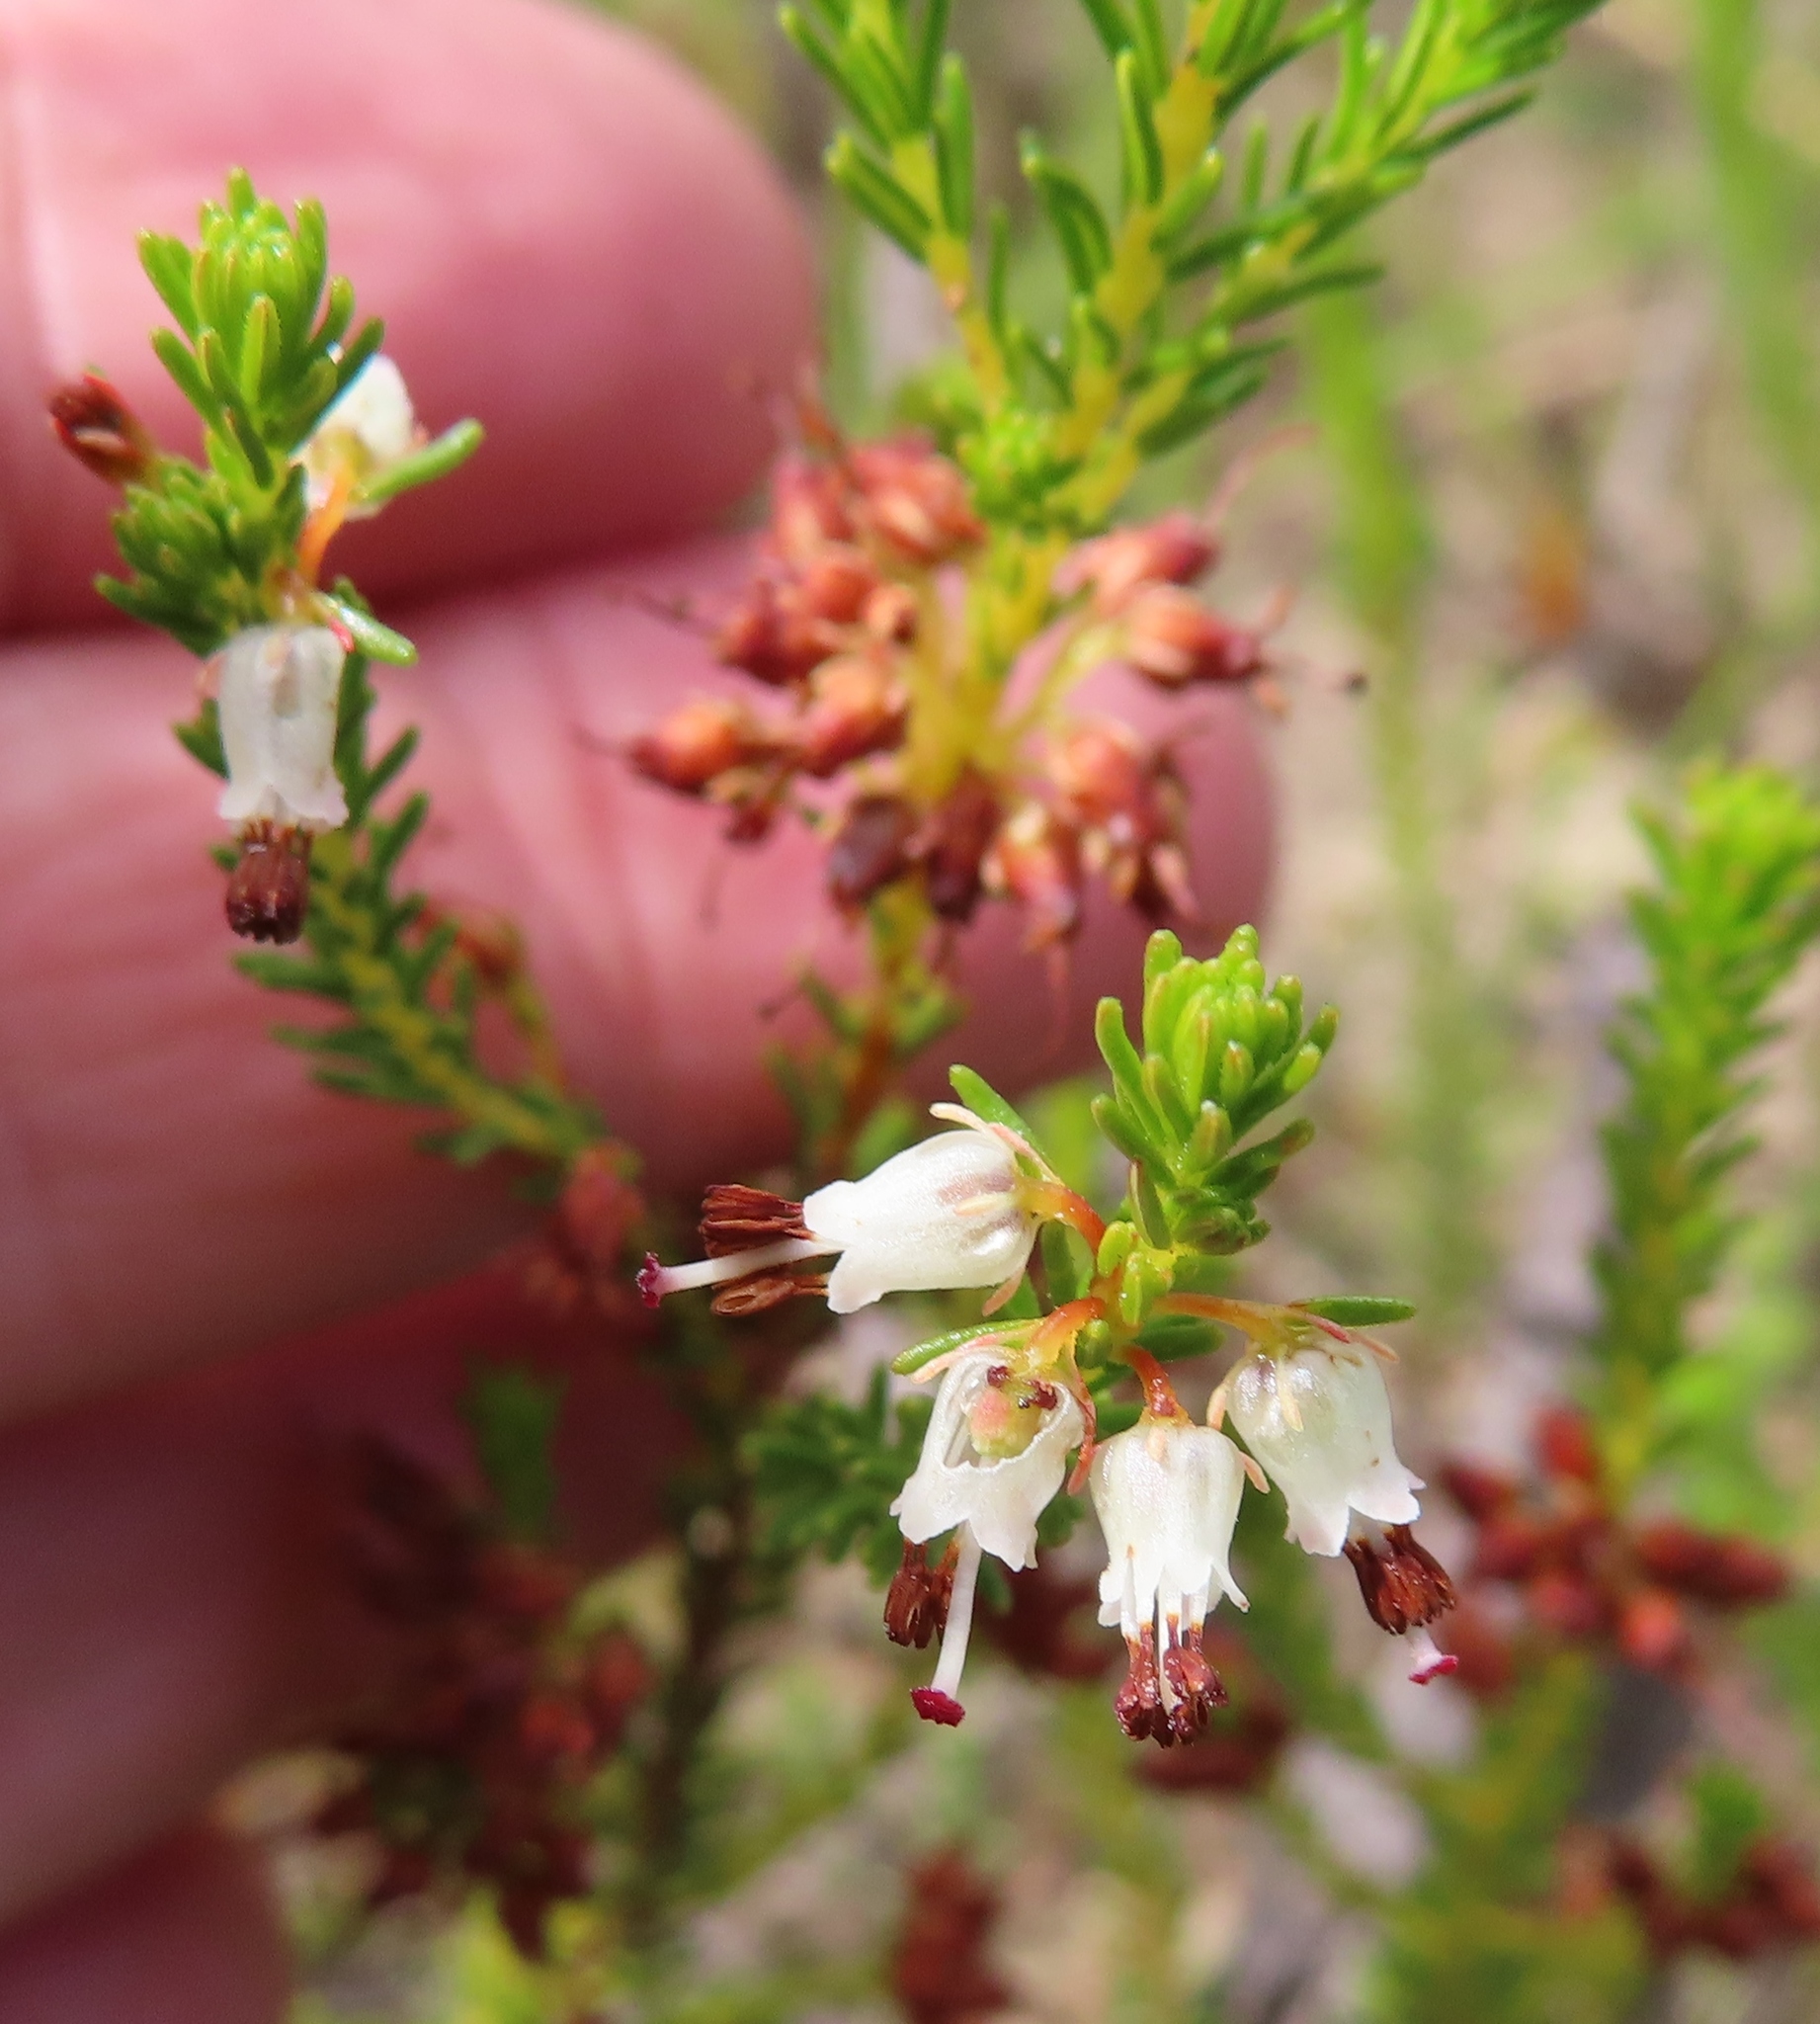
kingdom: Plantae
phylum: Tracheophyta
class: Magnoliopsida
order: Ericales
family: Ericaceae
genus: Erica
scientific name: Erica ustulescens
